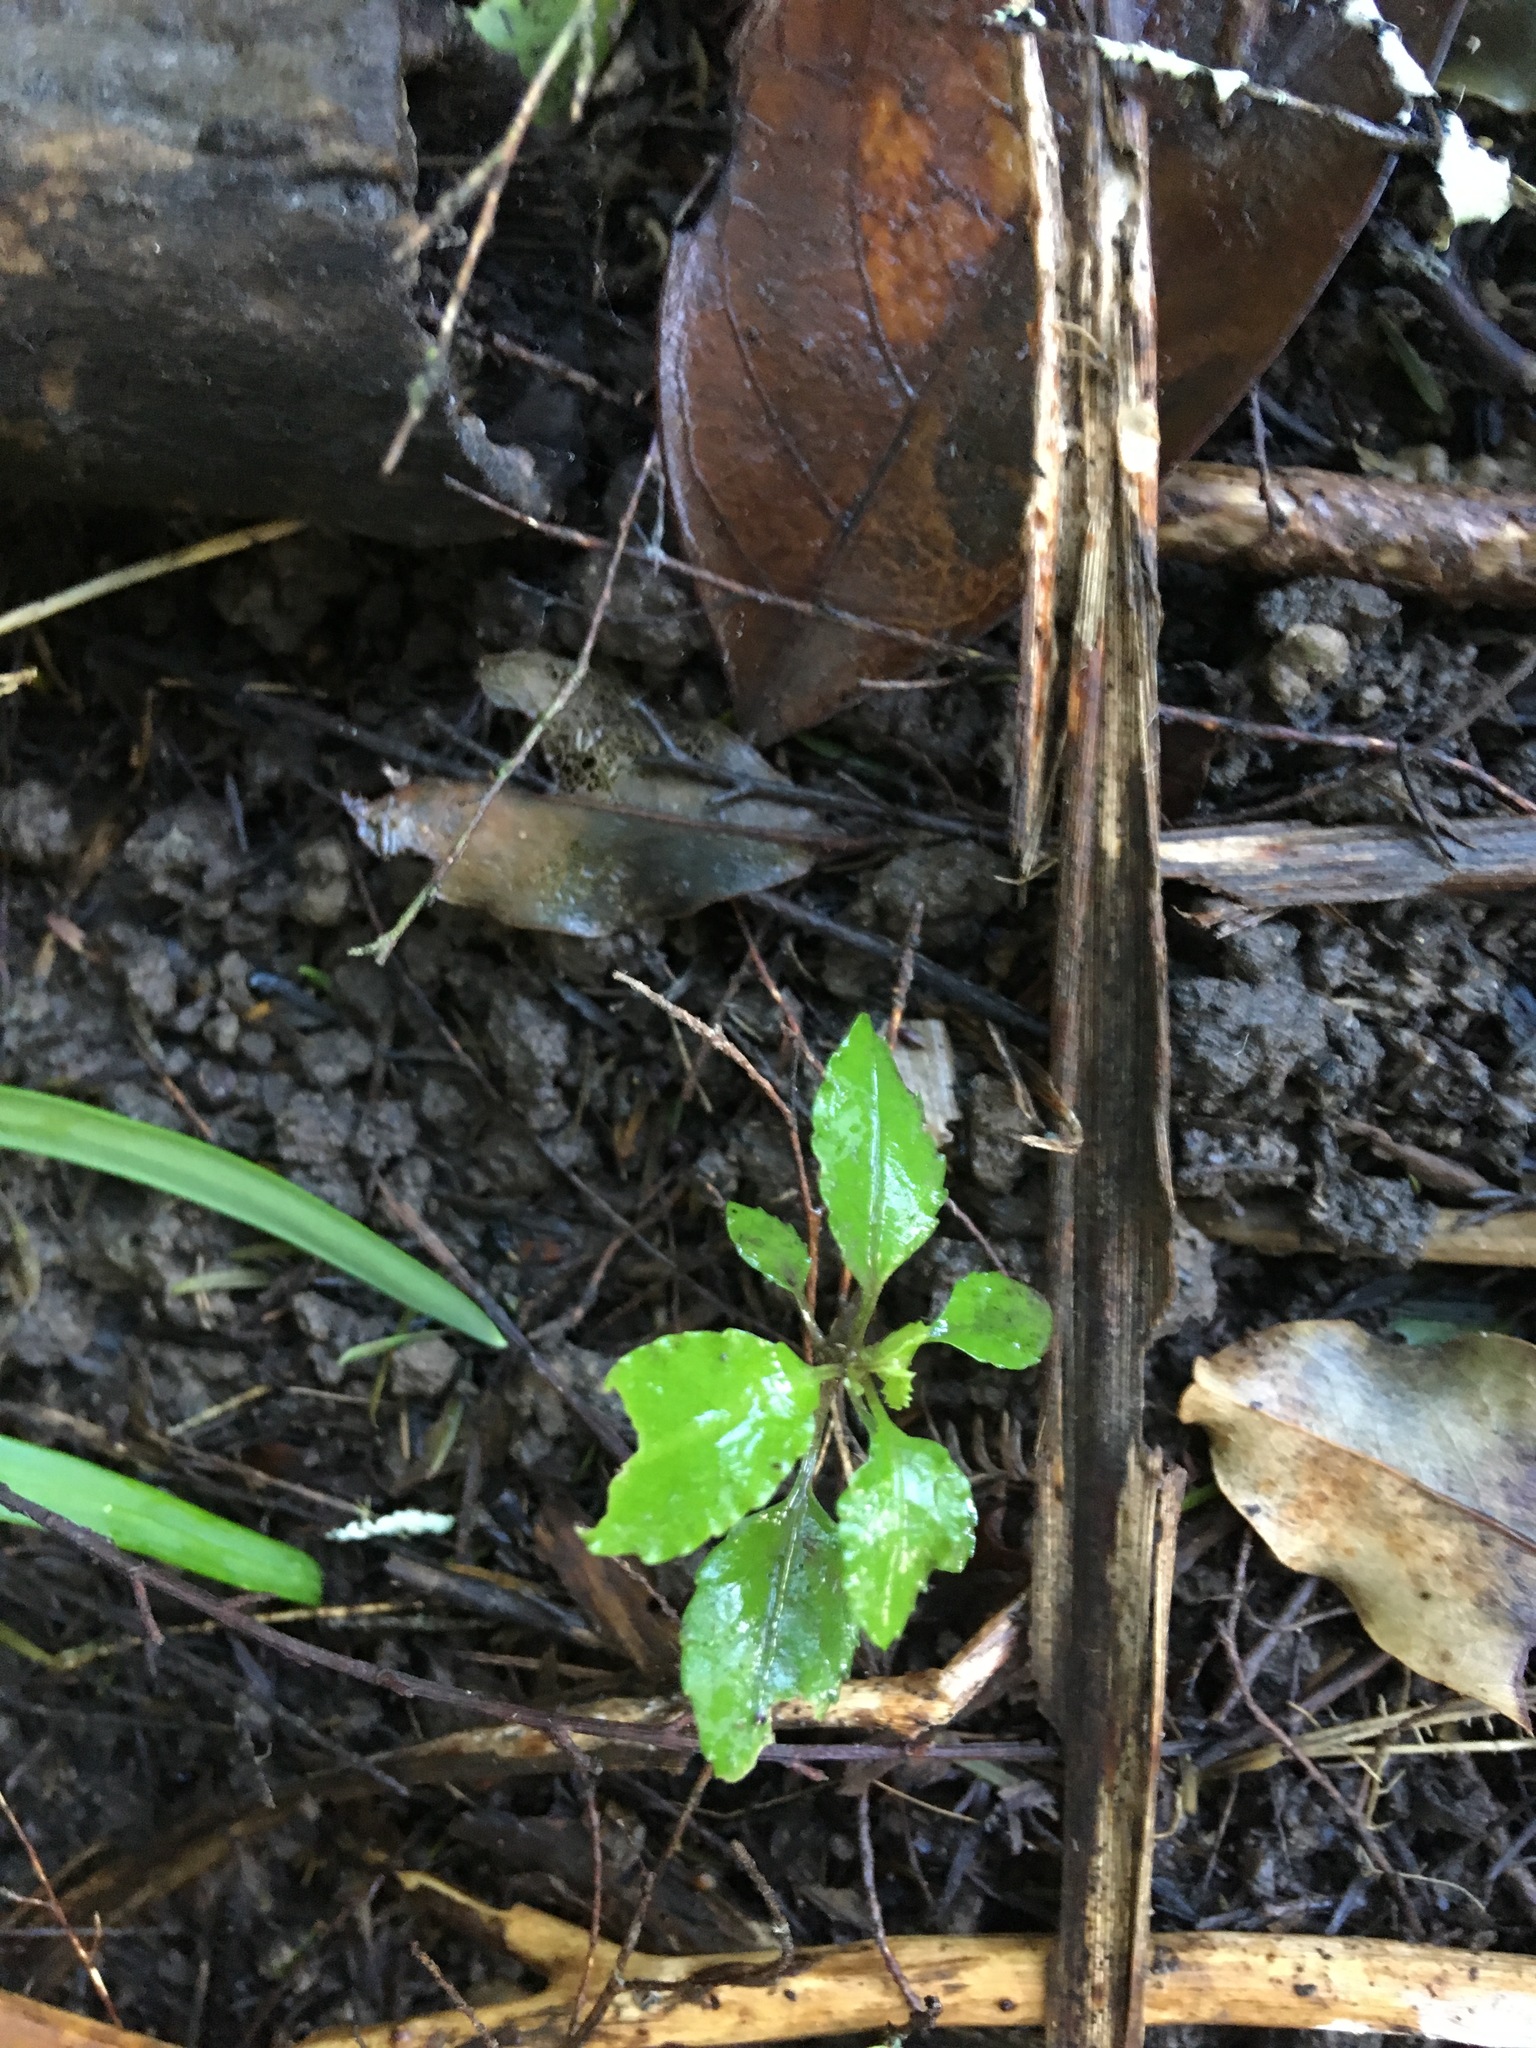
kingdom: Plantae
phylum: Tracheophyta
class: Magnoliopsida
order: Malpighiales
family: Violaceae
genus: Melicytus
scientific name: Melicytus ramiflorus
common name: Mahoe
